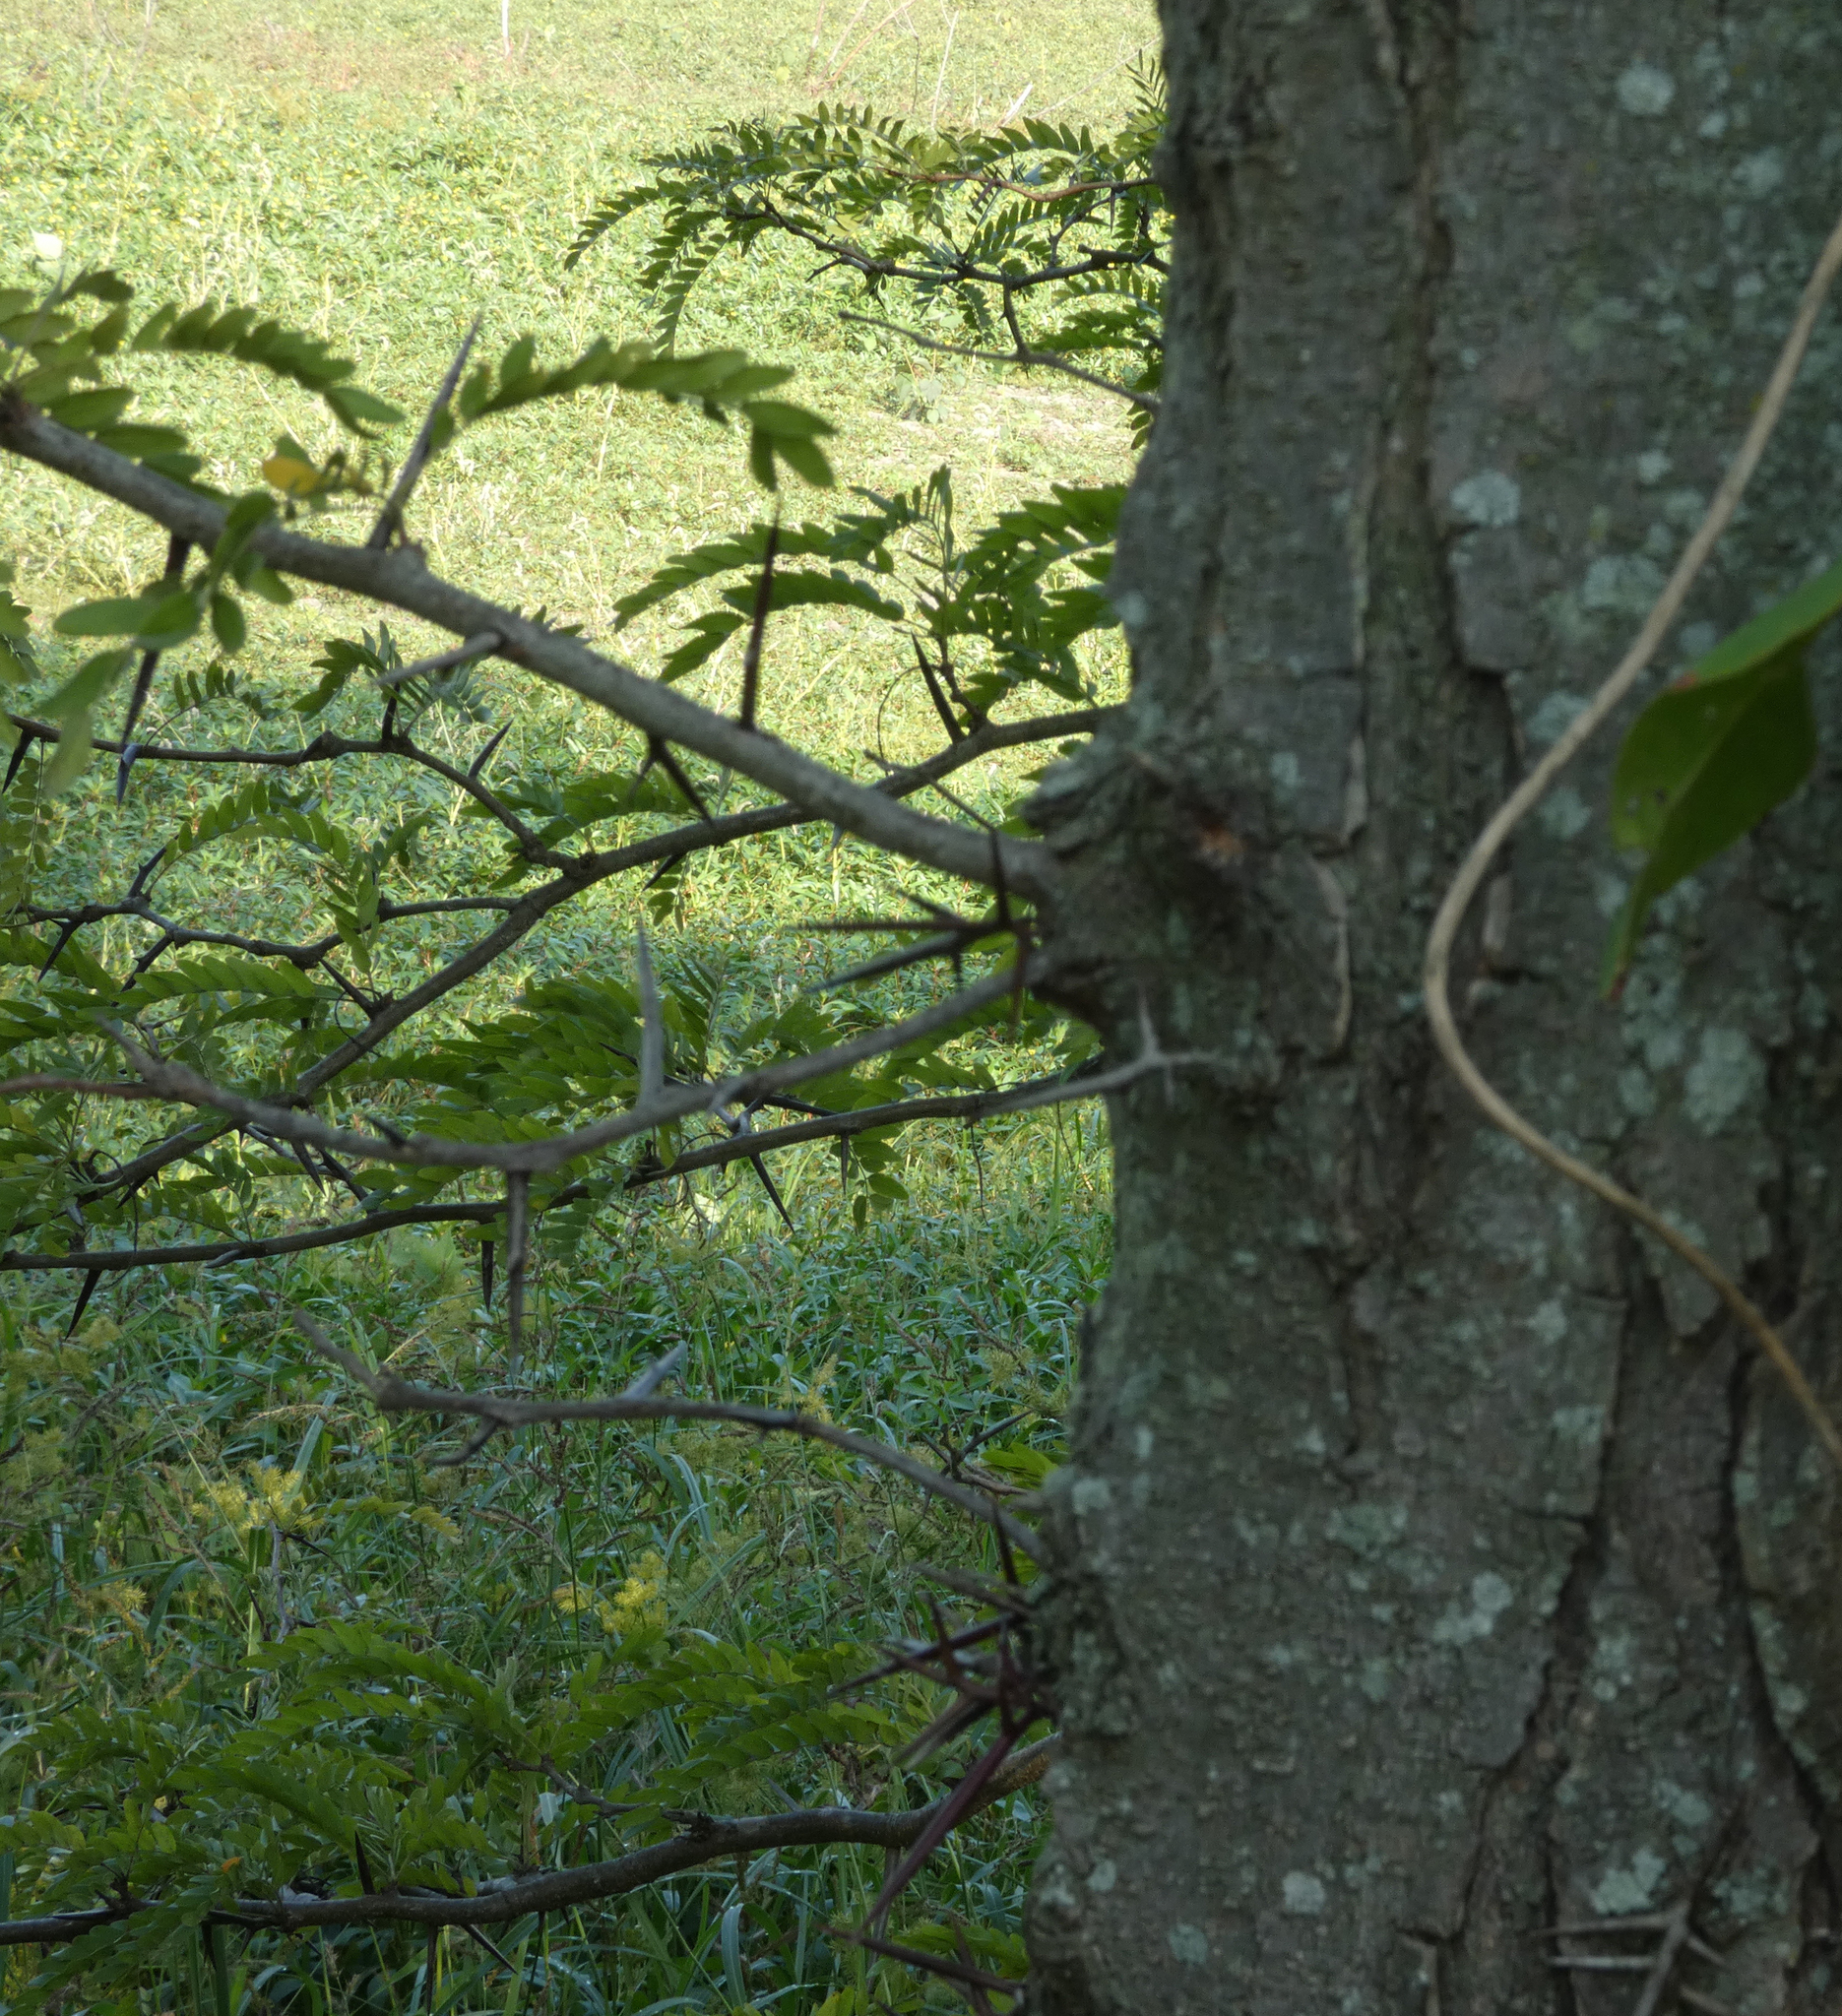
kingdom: Plantae
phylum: Tracheophyta
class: Magnoliopsida
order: Fabales
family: Fabaceae
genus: Gleditsia
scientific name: Gleditsia triacanthos
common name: Common honeylocust
